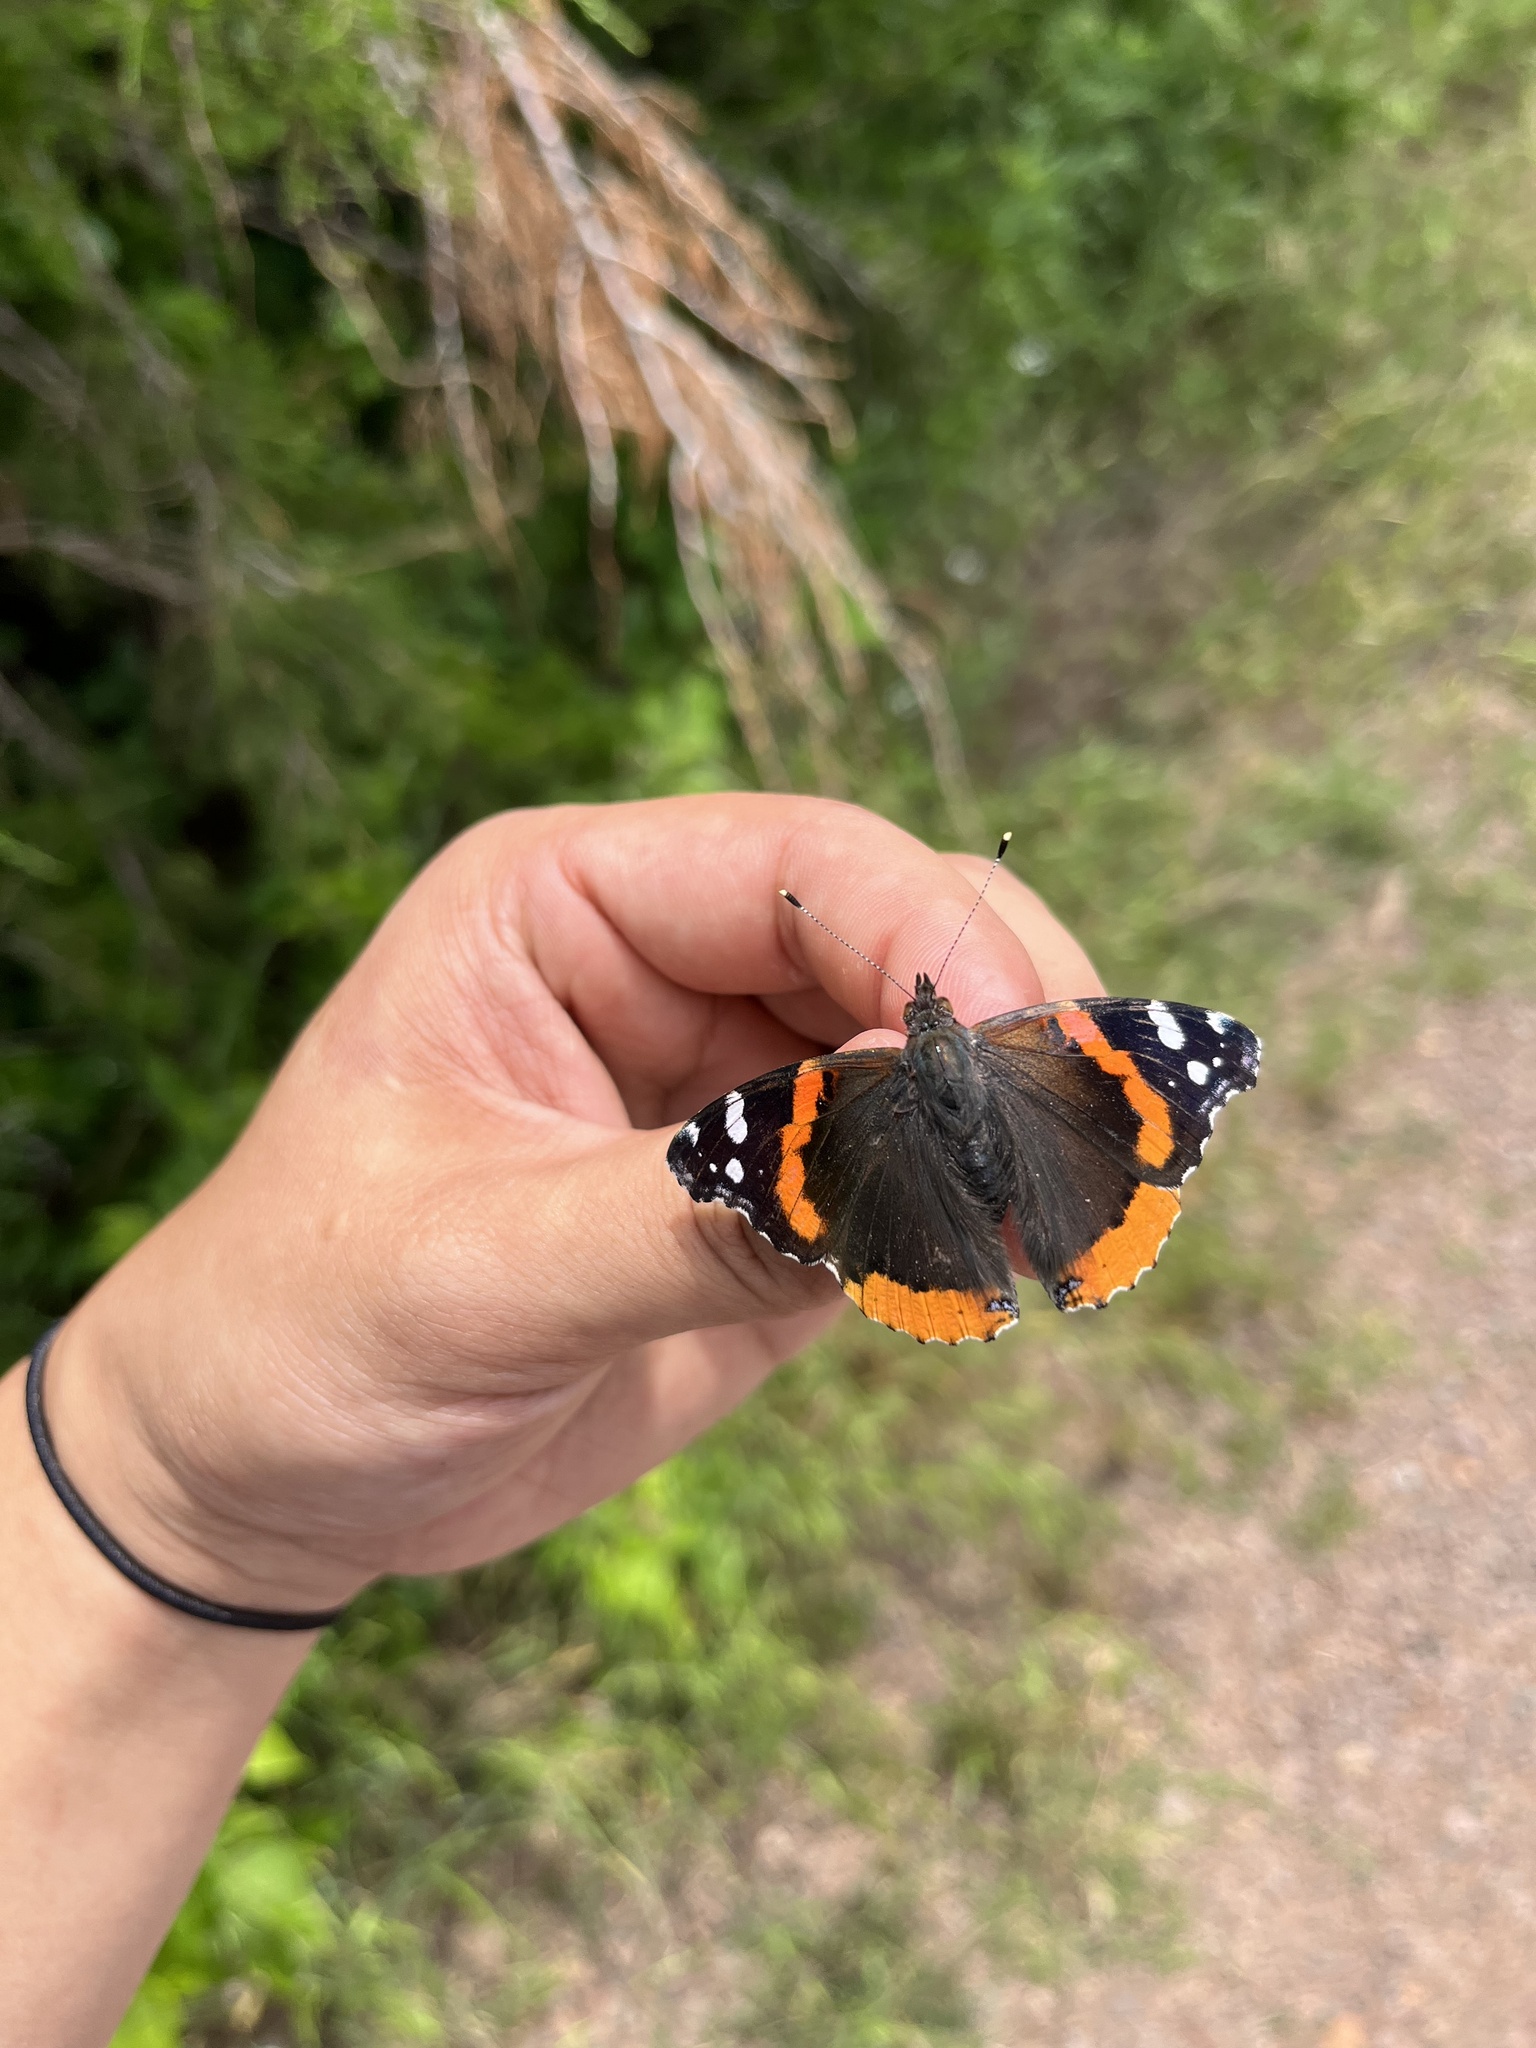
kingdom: Animalia
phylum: Arthropoda
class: Insecta
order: Lepidoptera
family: Nymphalidae
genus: Vanessa
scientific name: Vanessa atalanta
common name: Red admiral
